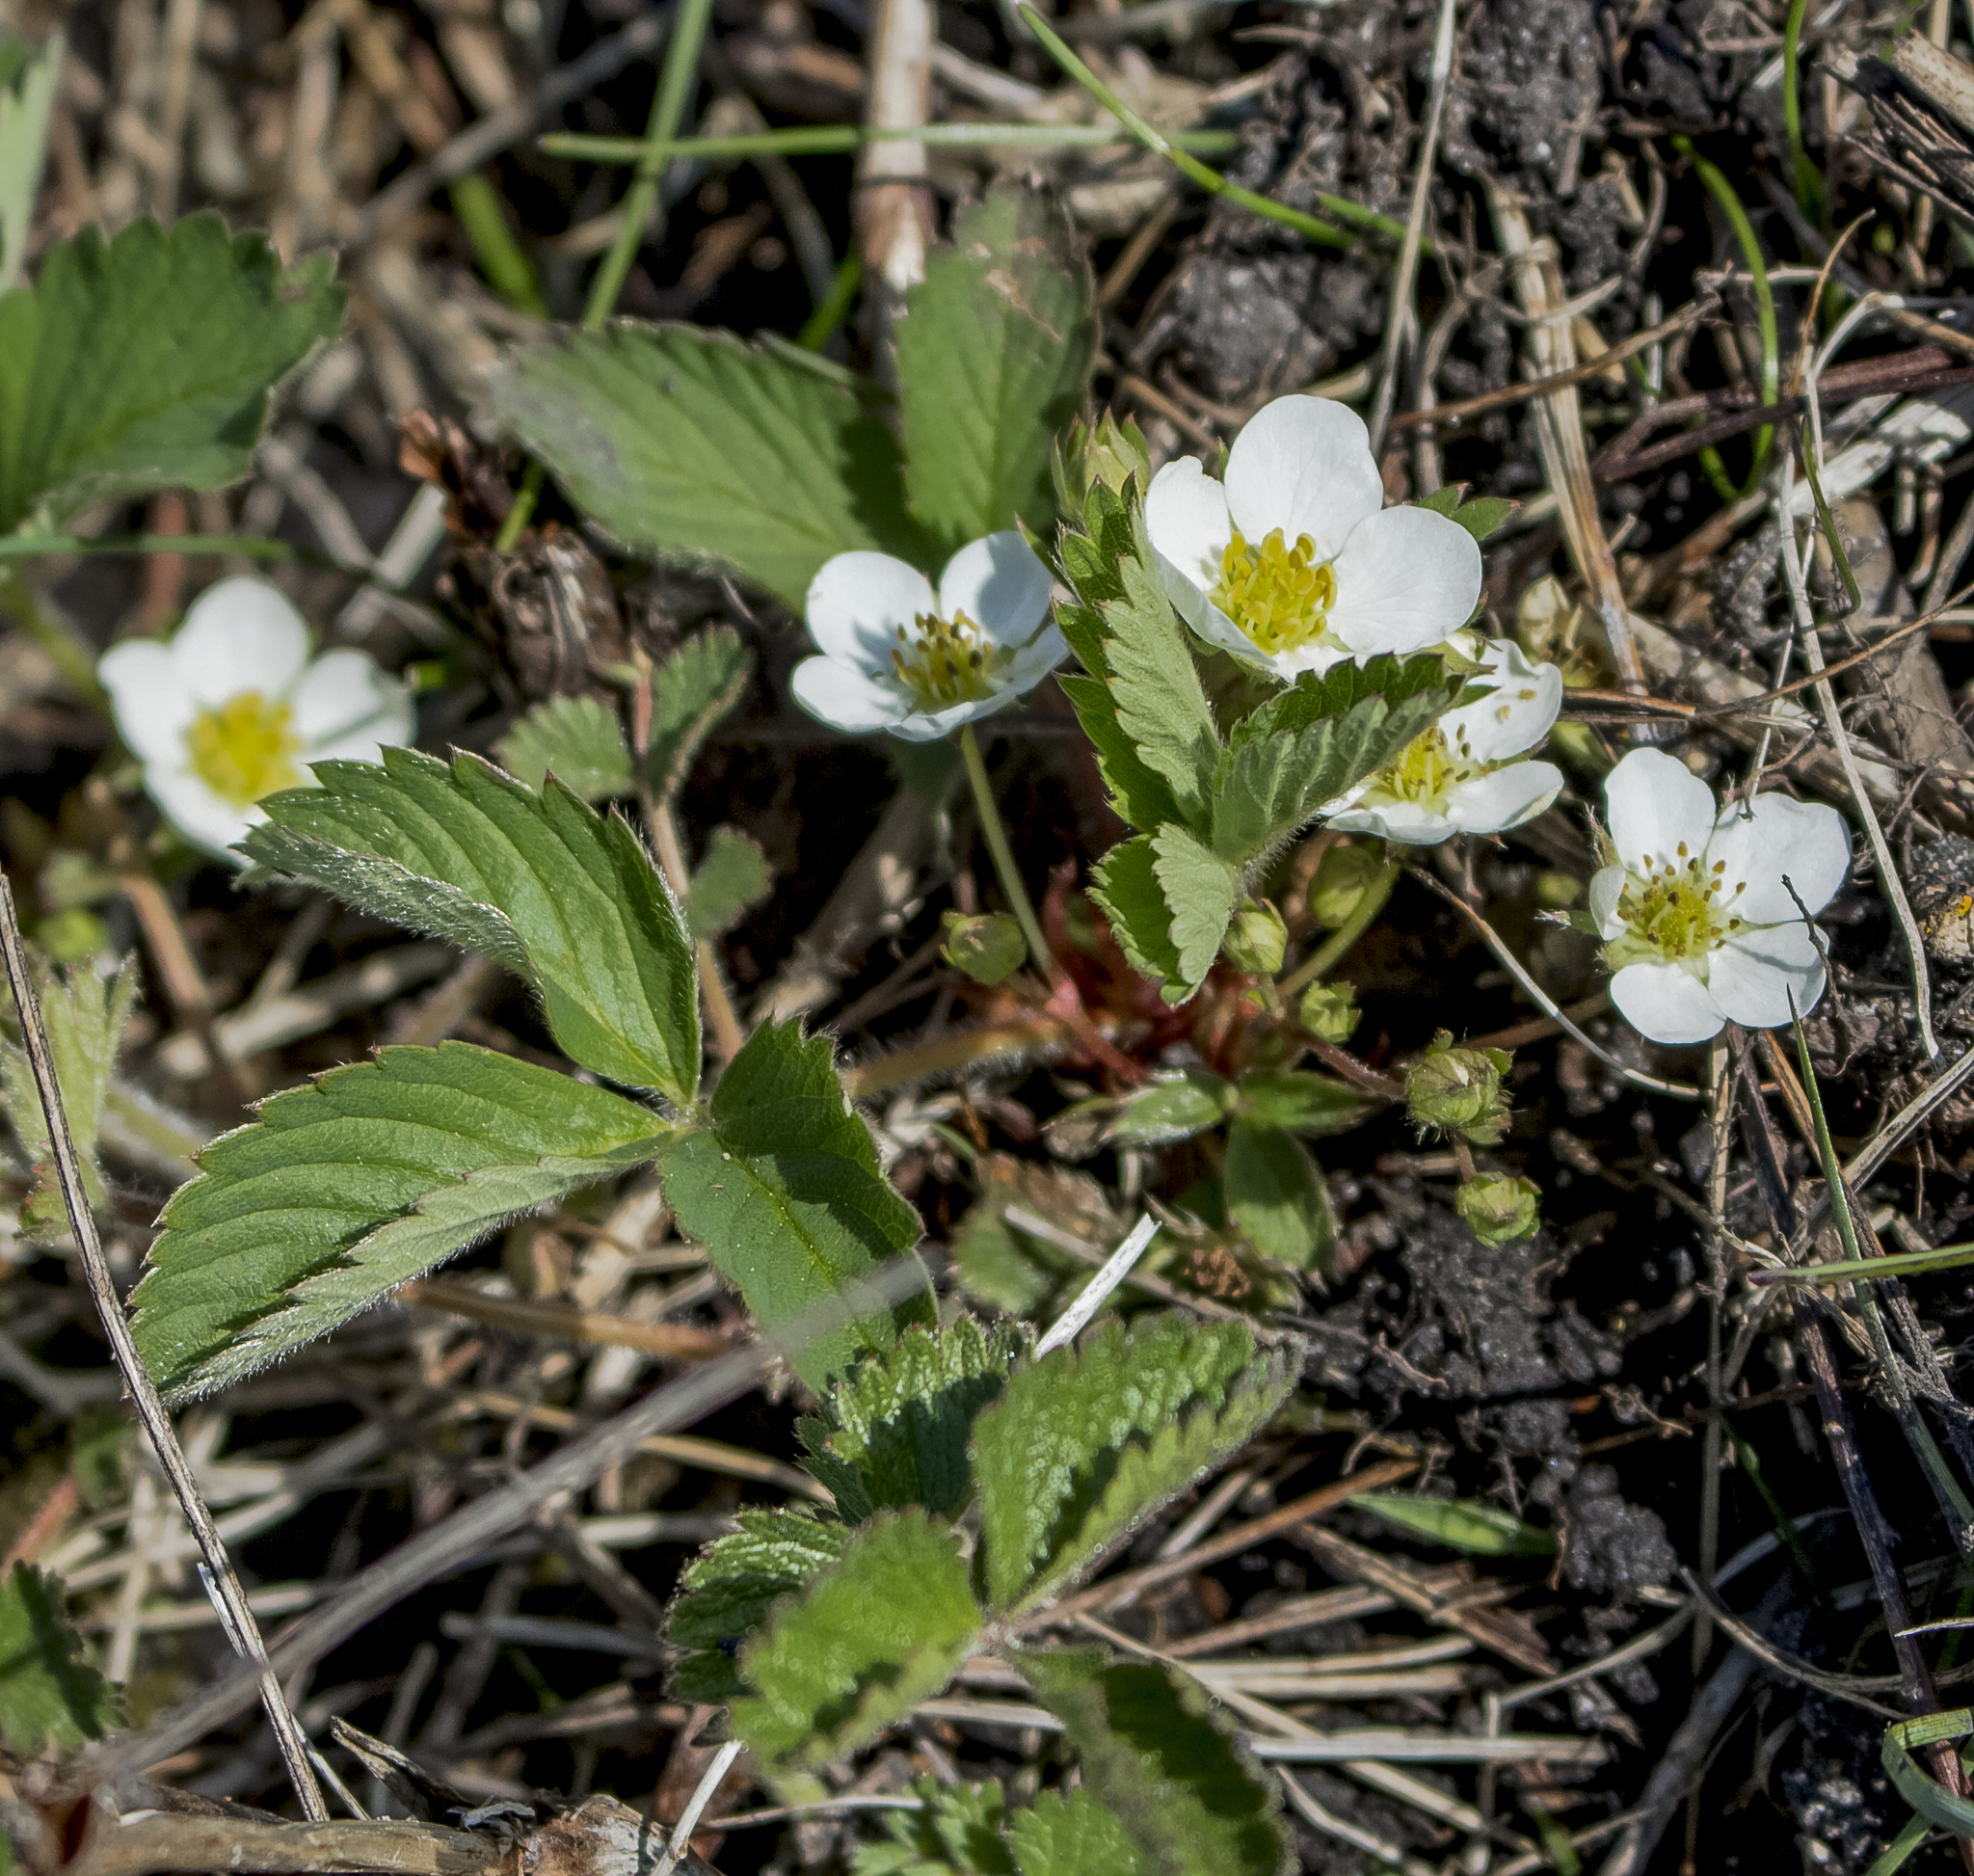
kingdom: Plantae
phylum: Tracheophyta
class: Magnoliopsida
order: Rosales
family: Rosaceae
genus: Fragaria
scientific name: Fragaria virginiana
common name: Thickleaved wild strawberry
